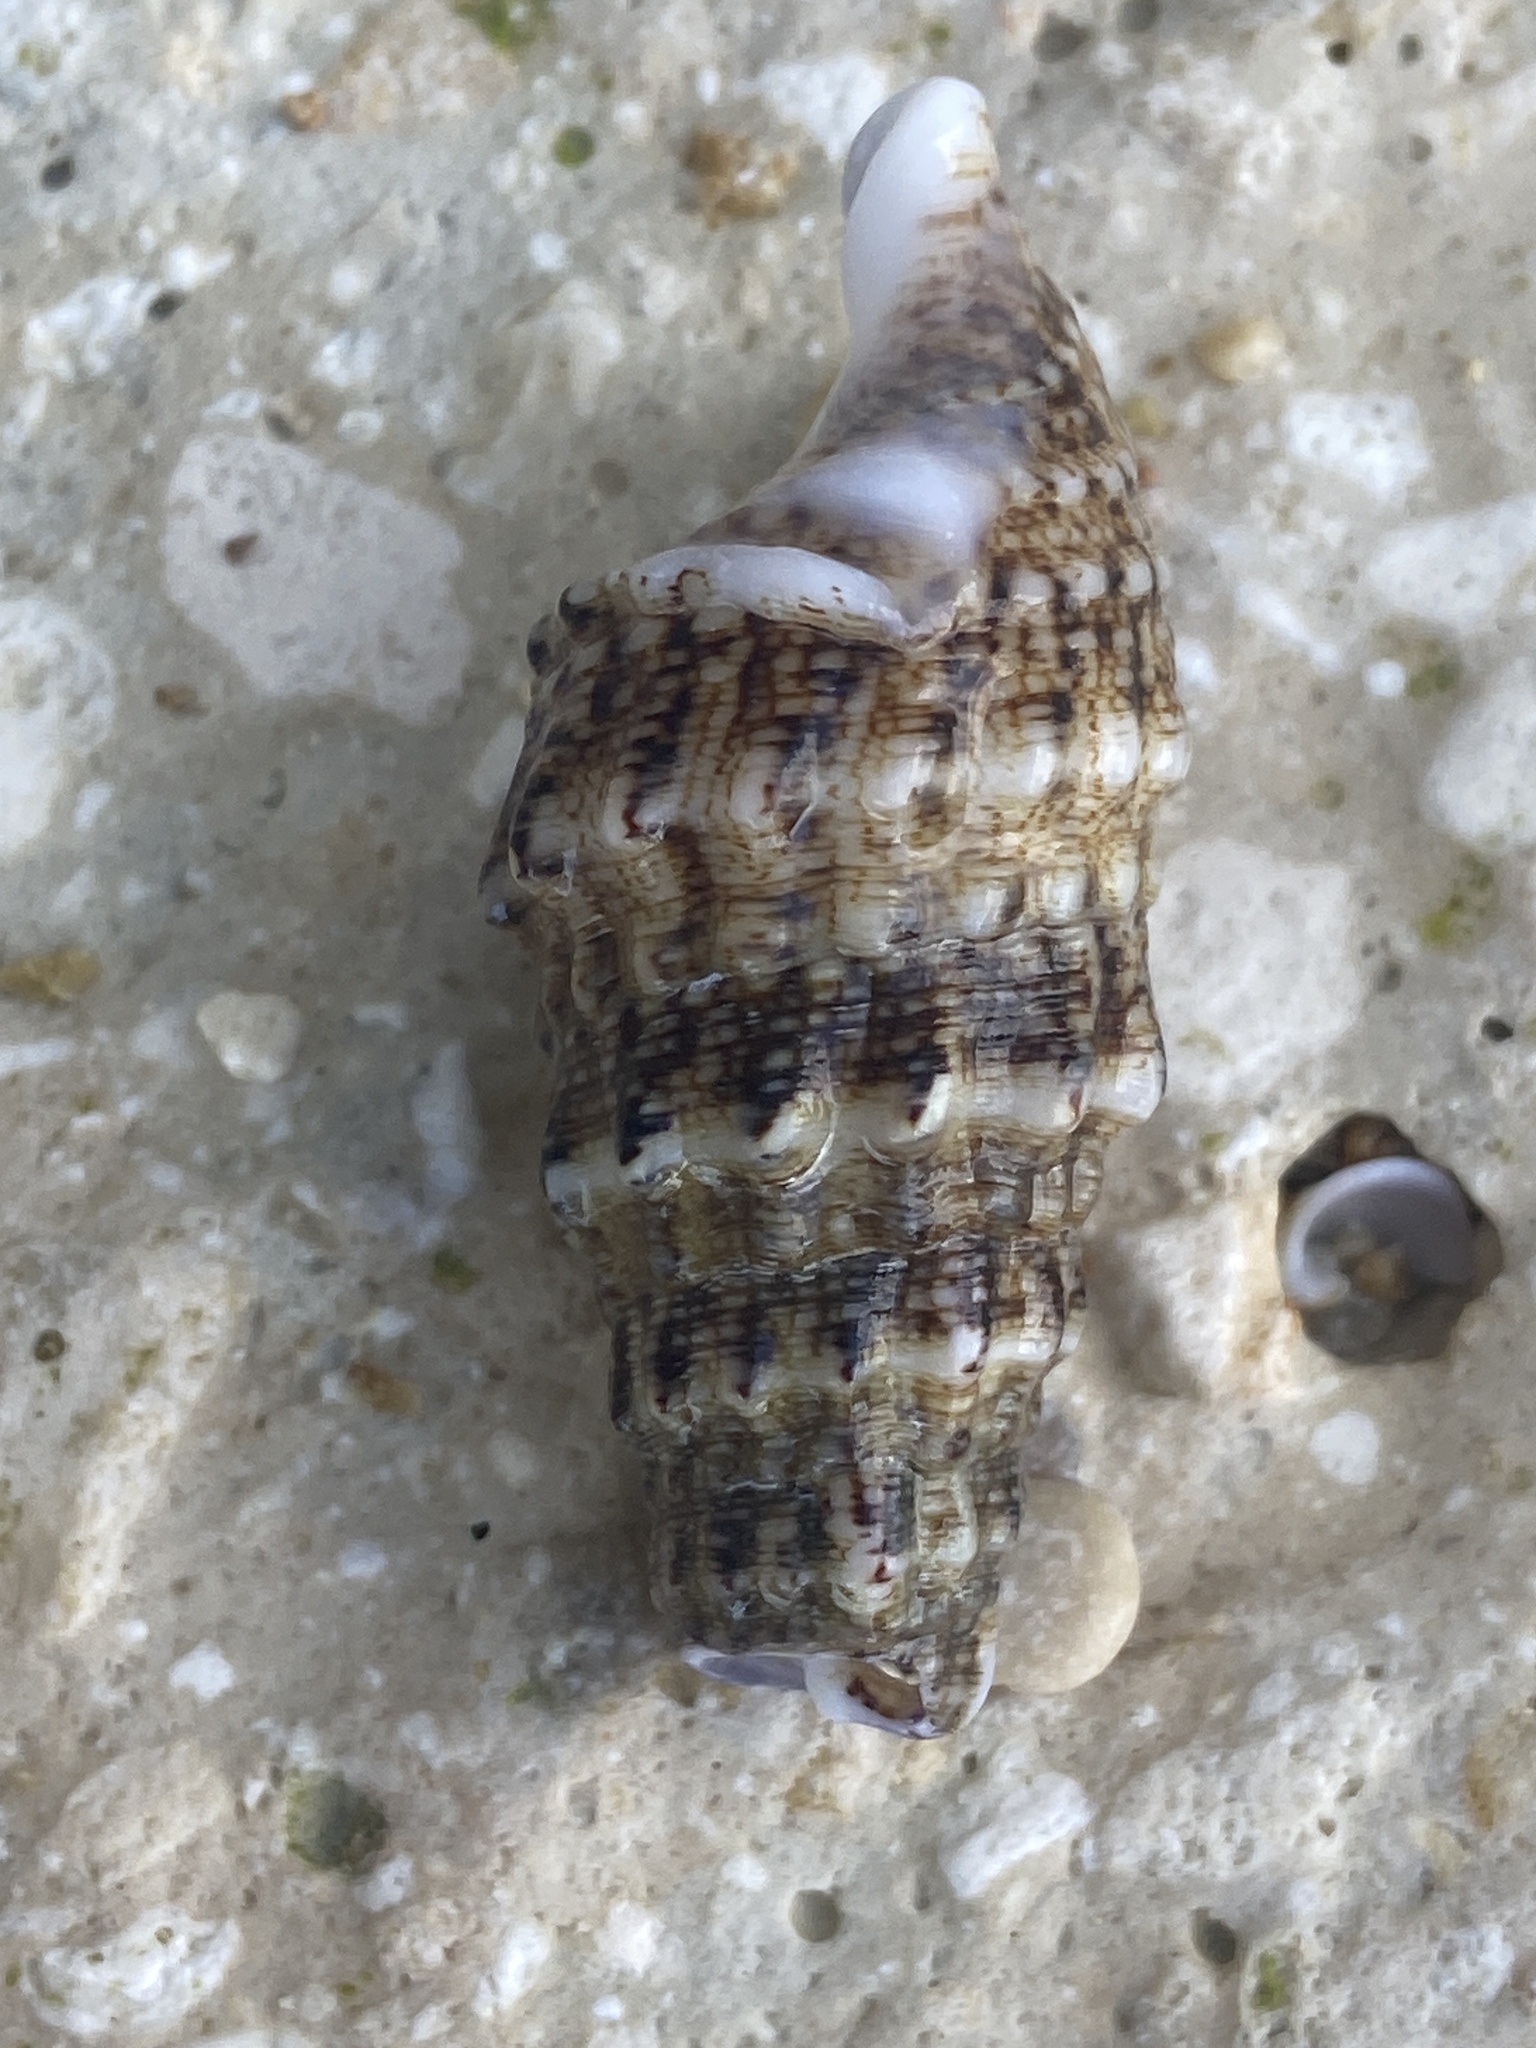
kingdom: Animalia
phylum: Mollusca
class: Gastropoda
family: Cerithiidae
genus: Cerithium
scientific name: Cerithium vulgatum
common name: European cerith
